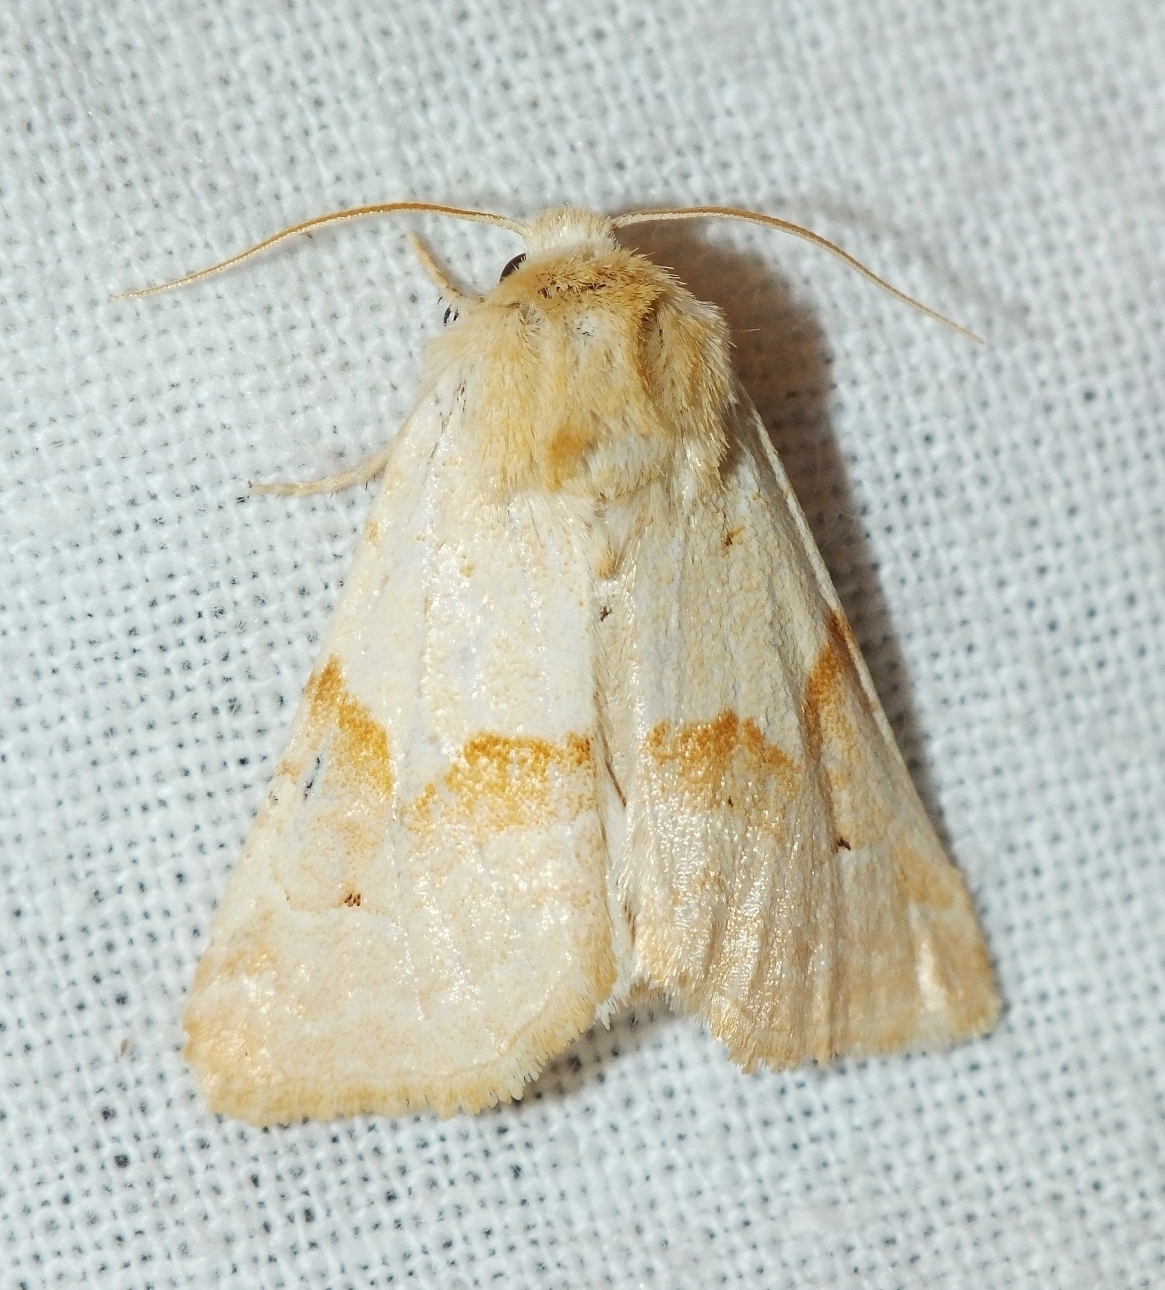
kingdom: Animalia
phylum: Arthropoda
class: Insecta
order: Lepidoptera
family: Noctuidae
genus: Mycteroplus
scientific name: Mycteroplus puniceago
